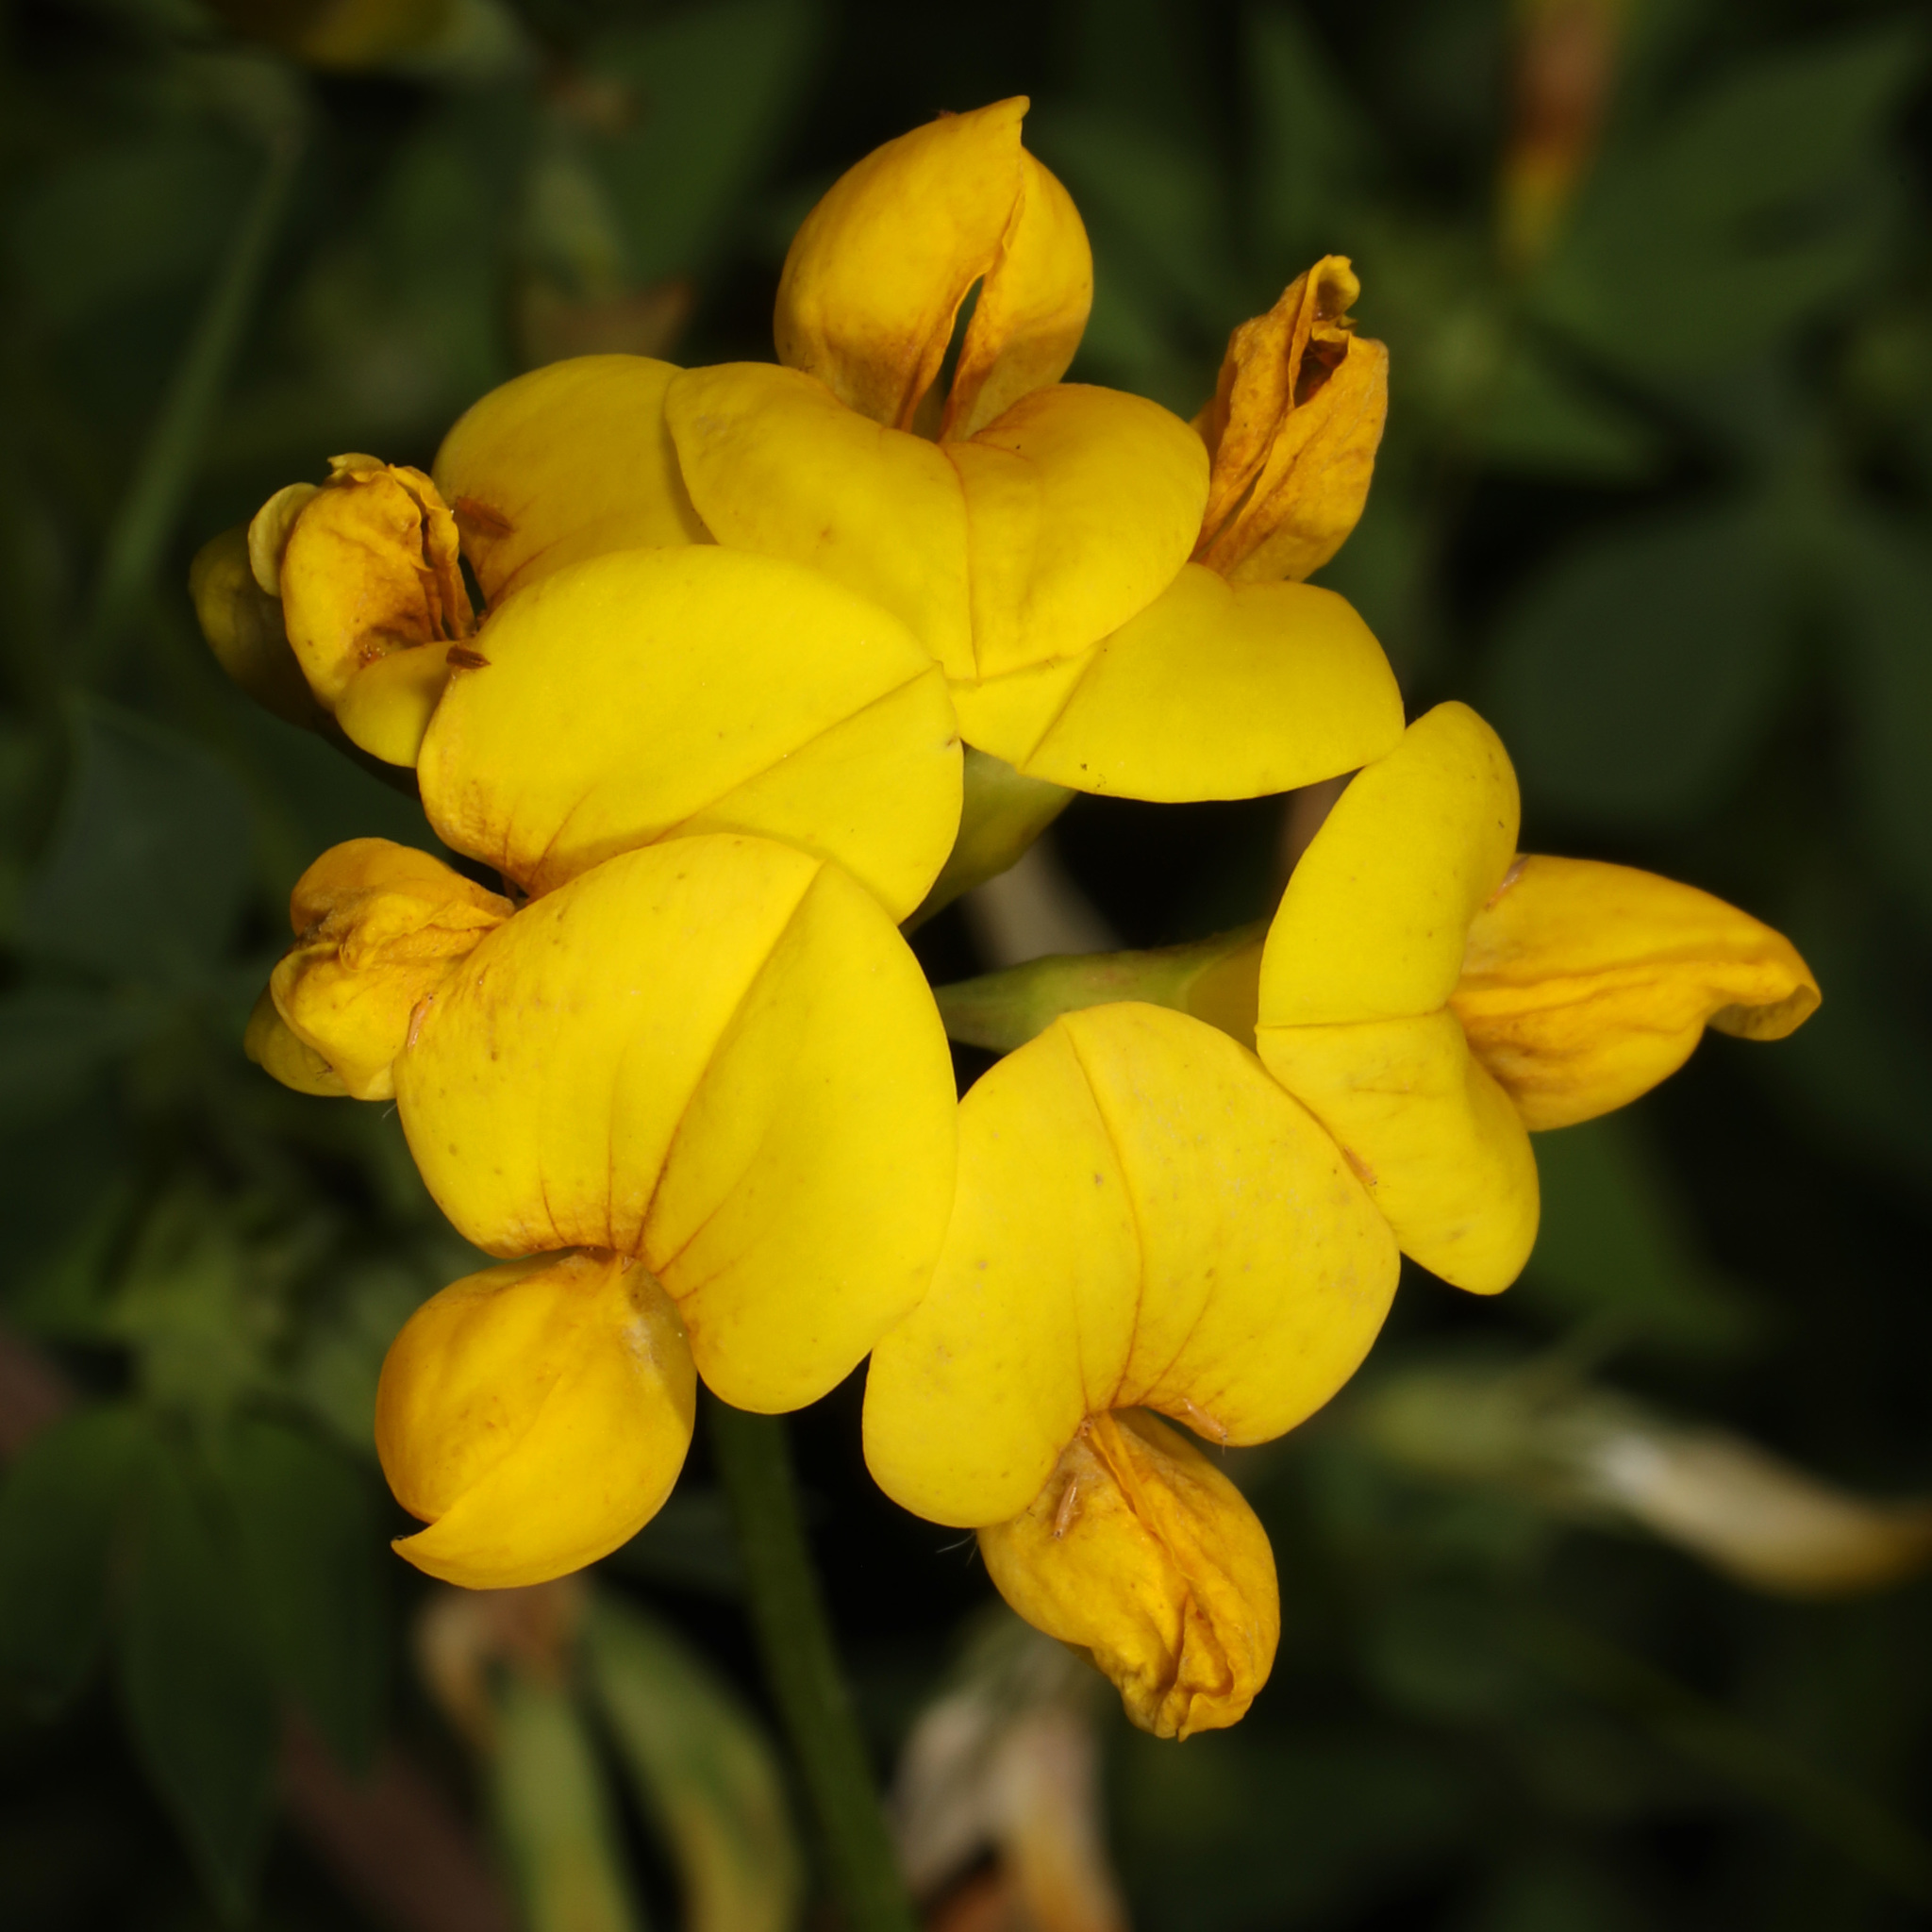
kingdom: Plantae
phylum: Tracheophyta
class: Magnoliopsida
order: Fabales
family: Fabaceae
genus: Lotus
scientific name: Lotus corniculatus
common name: Common bird's-foot-trefoil
